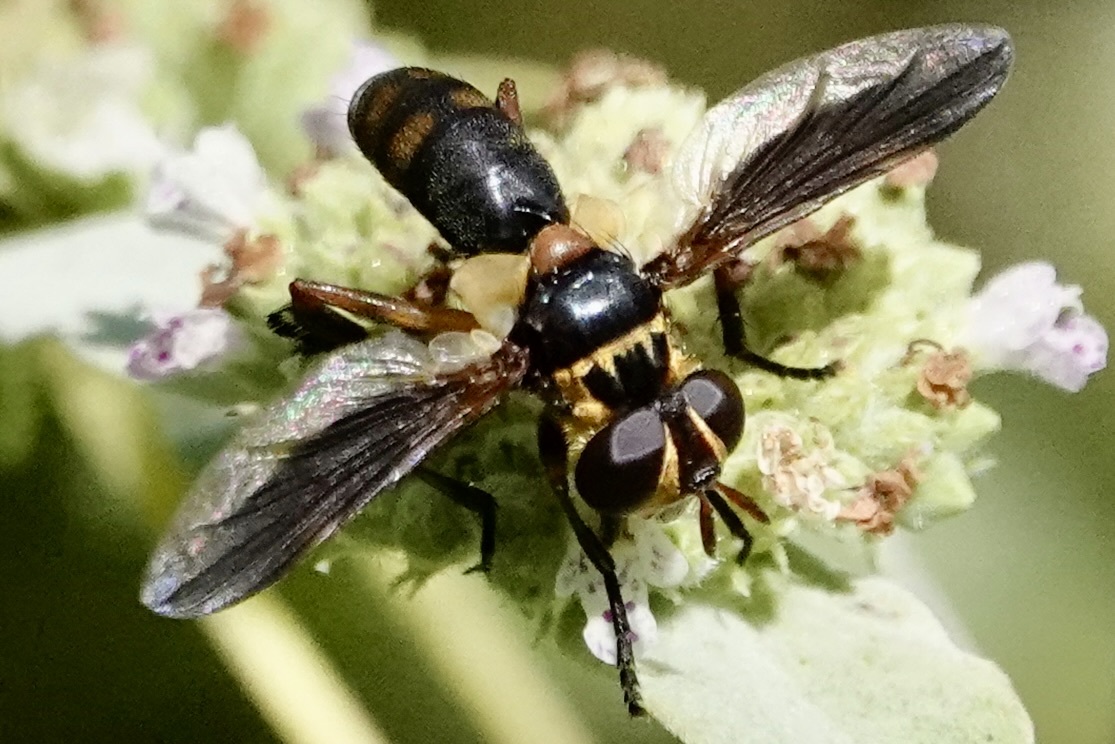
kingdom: Animalia
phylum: Arthropoda
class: Insecta
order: Diptera
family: Tachinidae
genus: Trichopoda
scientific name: Trichopoda plumipes
